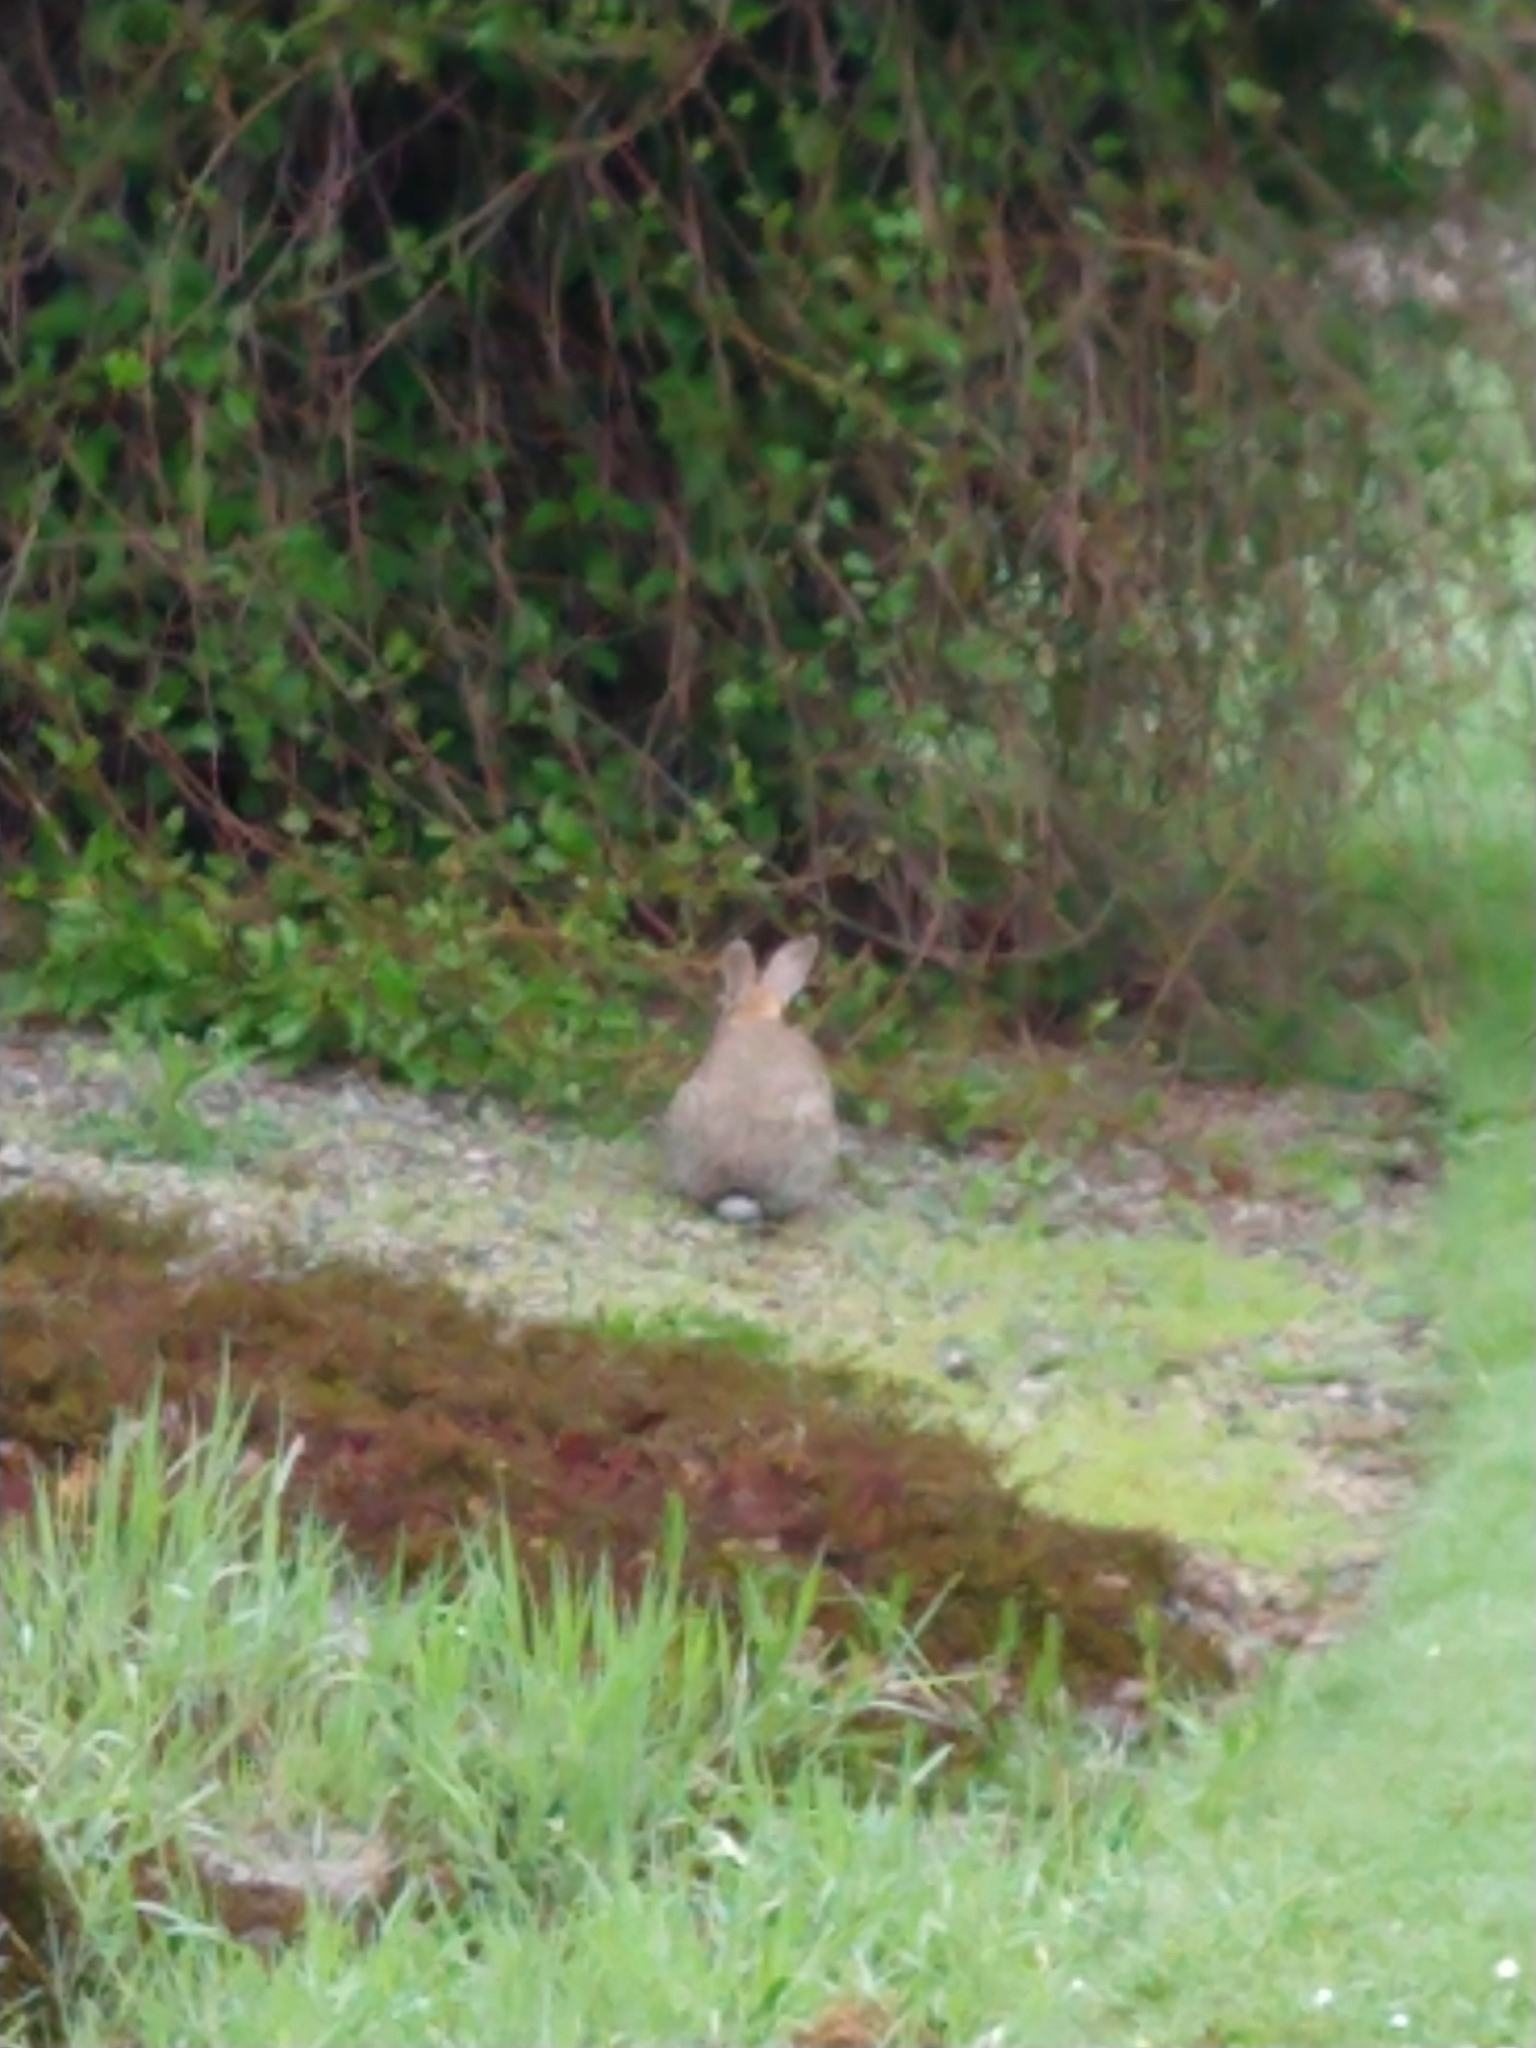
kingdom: Animalia
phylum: Chordata
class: Mammalia
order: Lagomorpha
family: Leporidae
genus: Oryctolagus
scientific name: Oryctolagus cuniculus
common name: European rabbit
